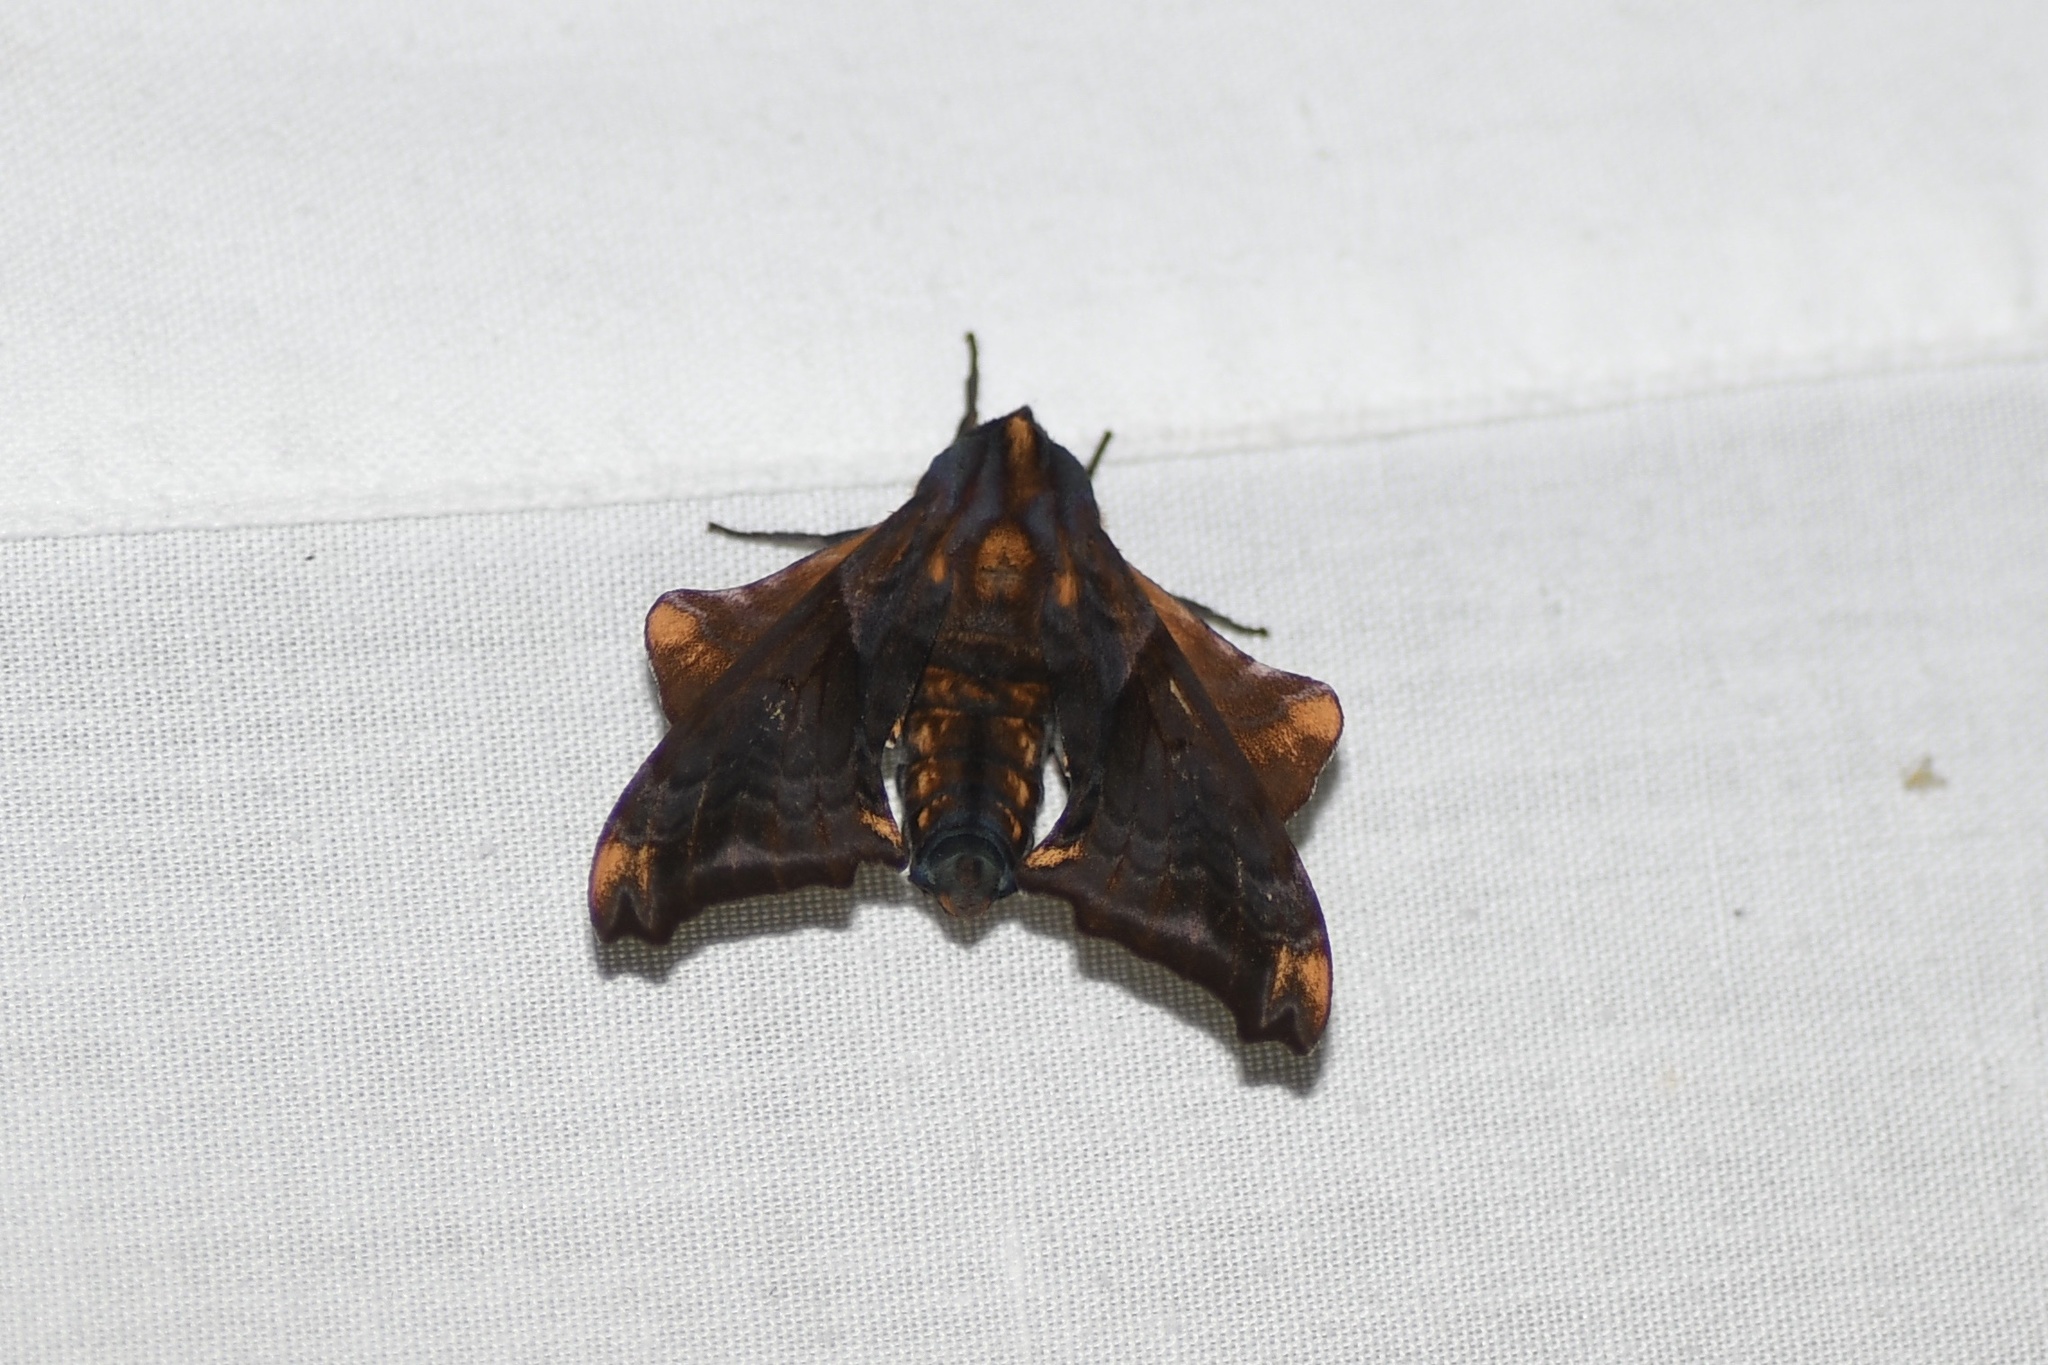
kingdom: Animalia
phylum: Arthropoda
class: Insecta
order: Lepidoptera
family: Sphingidae
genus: Paonias
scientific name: Paonias myops
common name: Small-eyed sphinx
